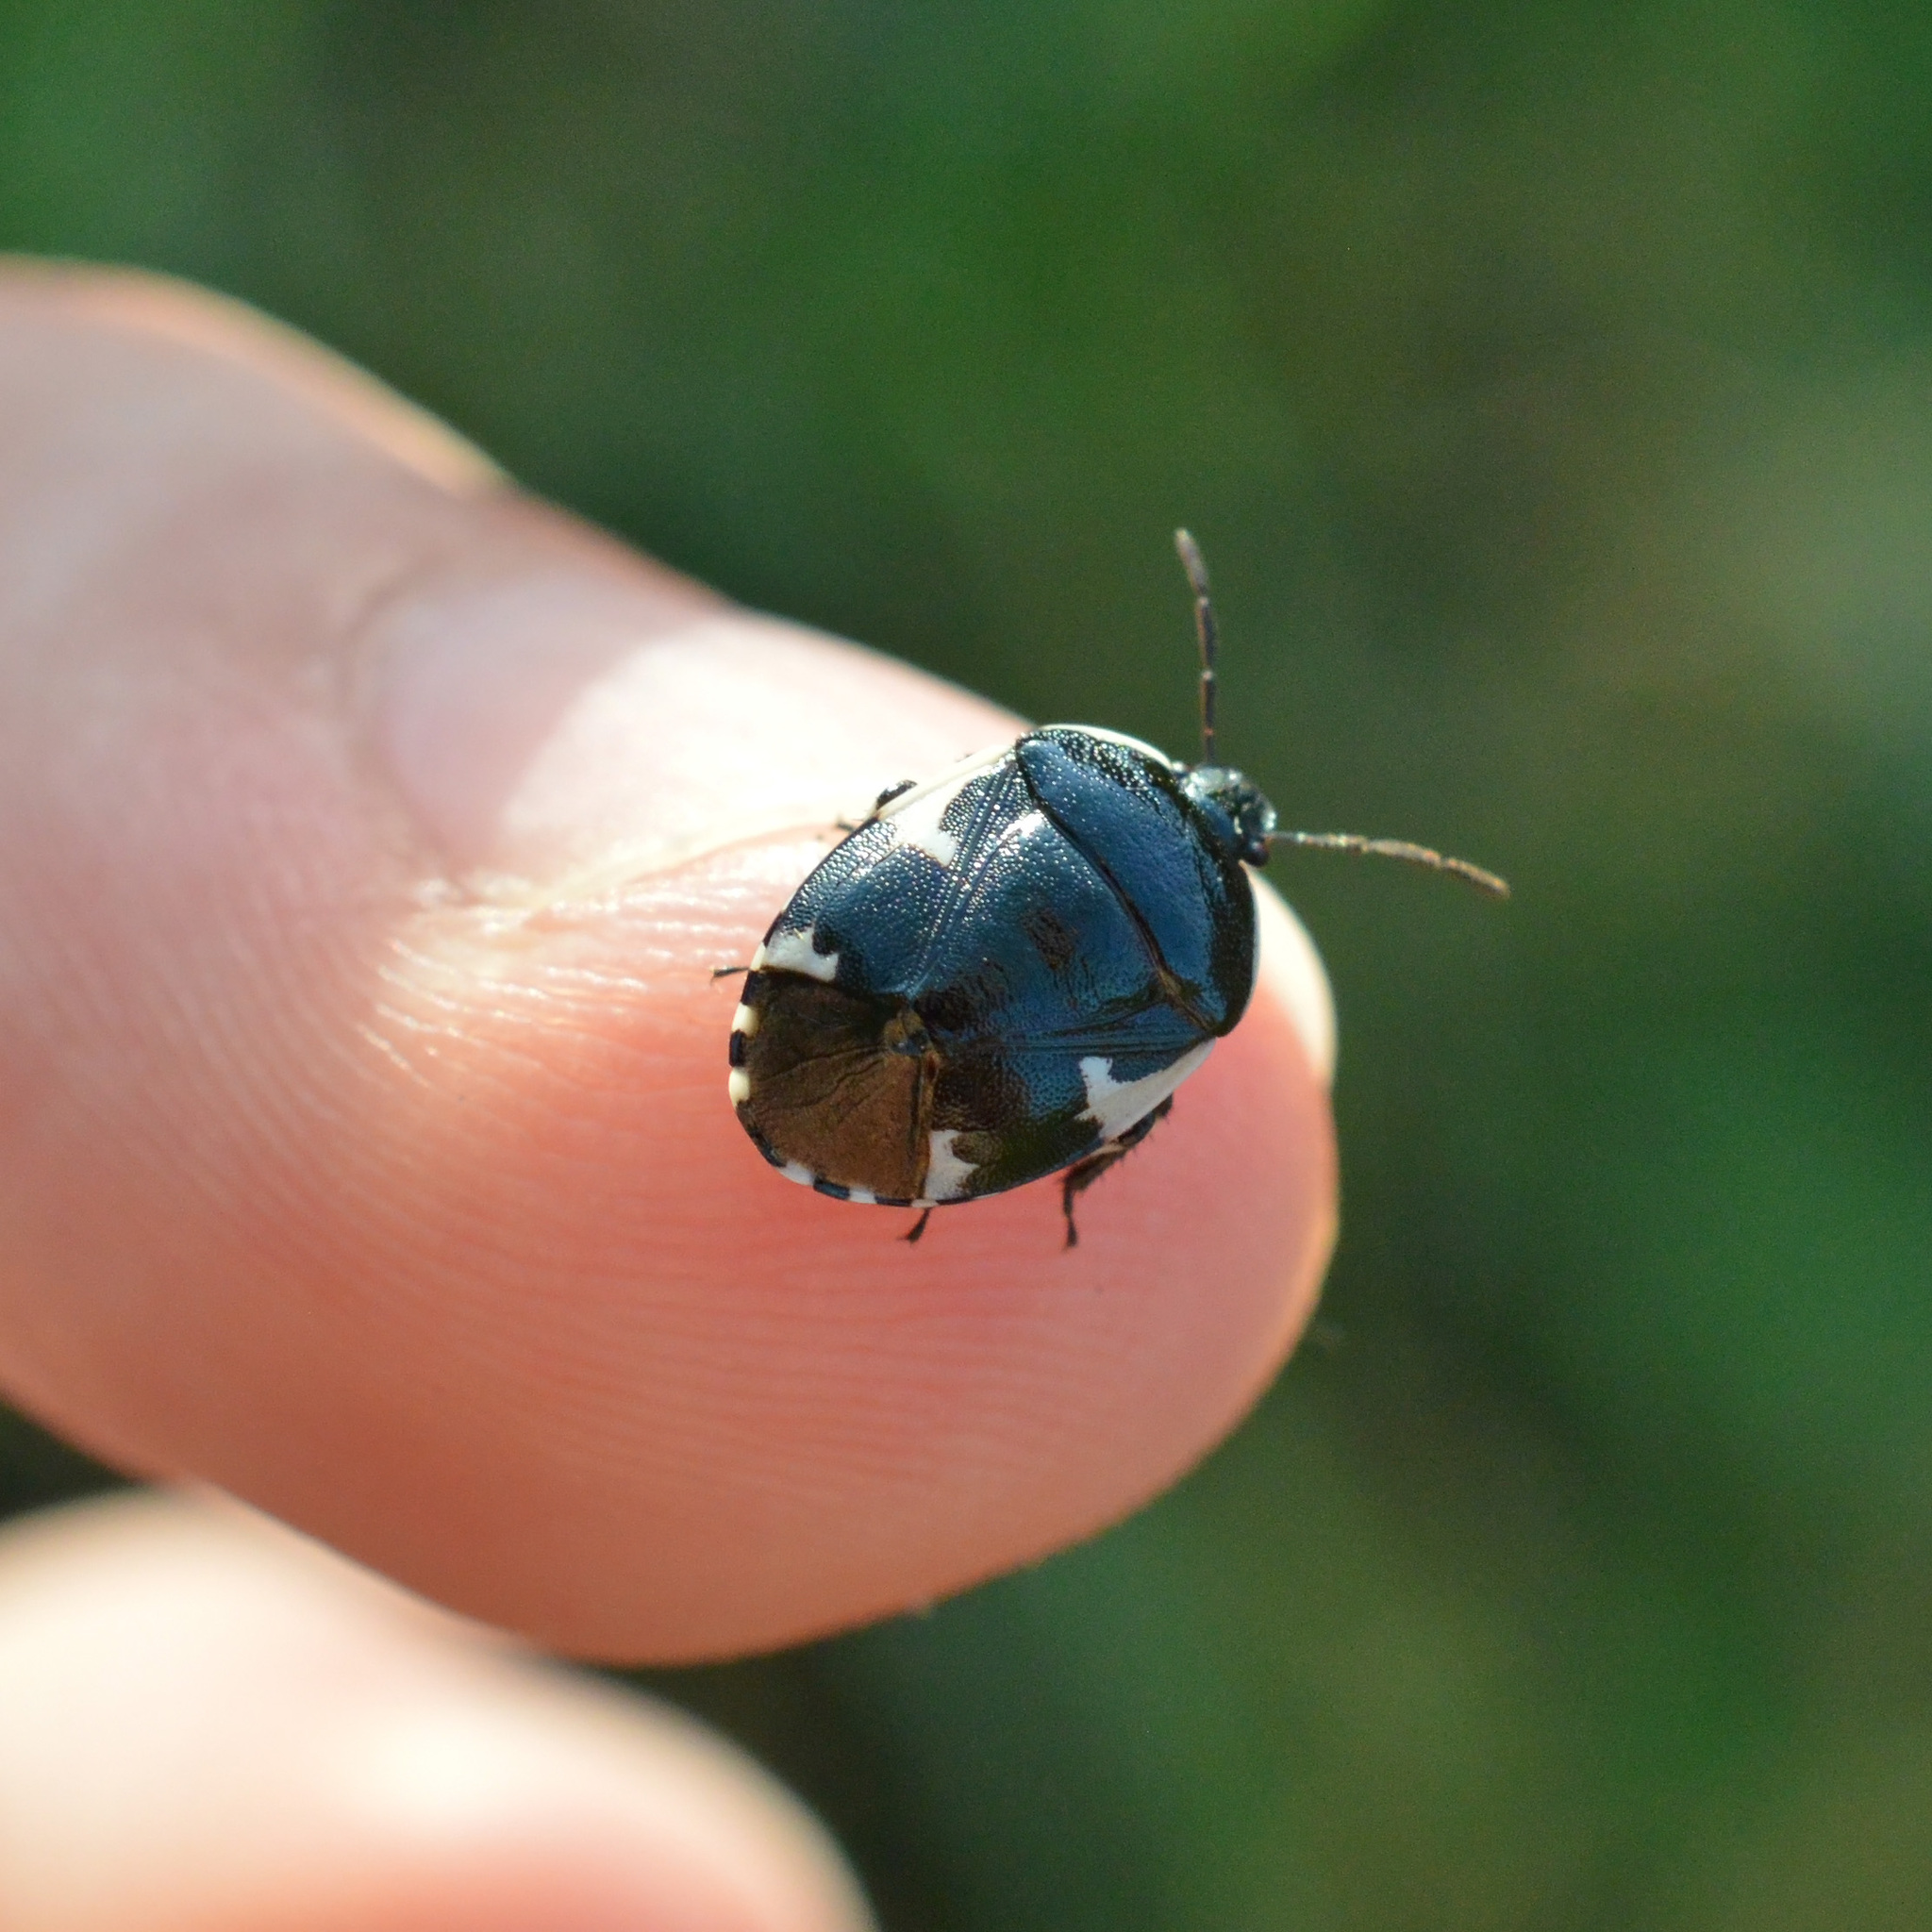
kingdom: Animalia
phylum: Arthropoda
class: Insecta
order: Hemiptera
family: Cydnidae
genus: Tritomegas
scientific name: Tritomegas sexmaculatus
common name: Rambur's pied shieldbug
